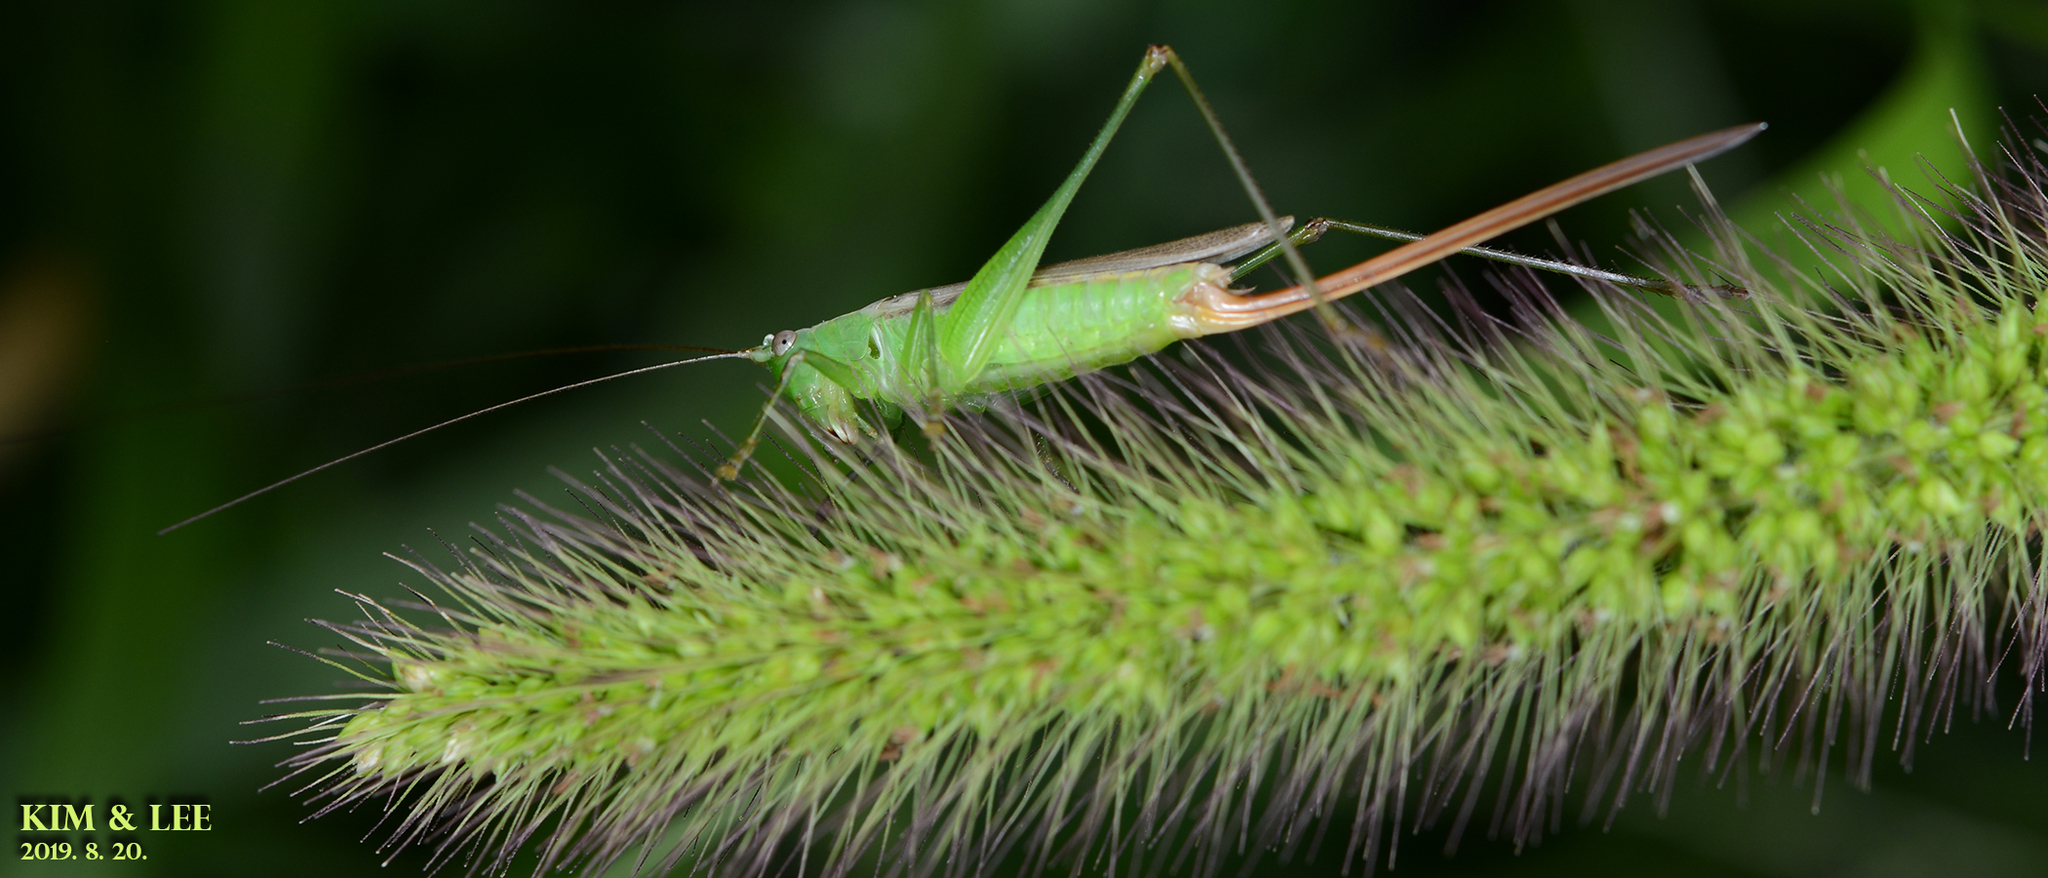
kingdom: Animalia
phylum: Arthropoda
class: Insecta
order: Orthoptera
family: Tettigoniidae
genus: Conocephalus
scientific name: Conocephalus exemptus
